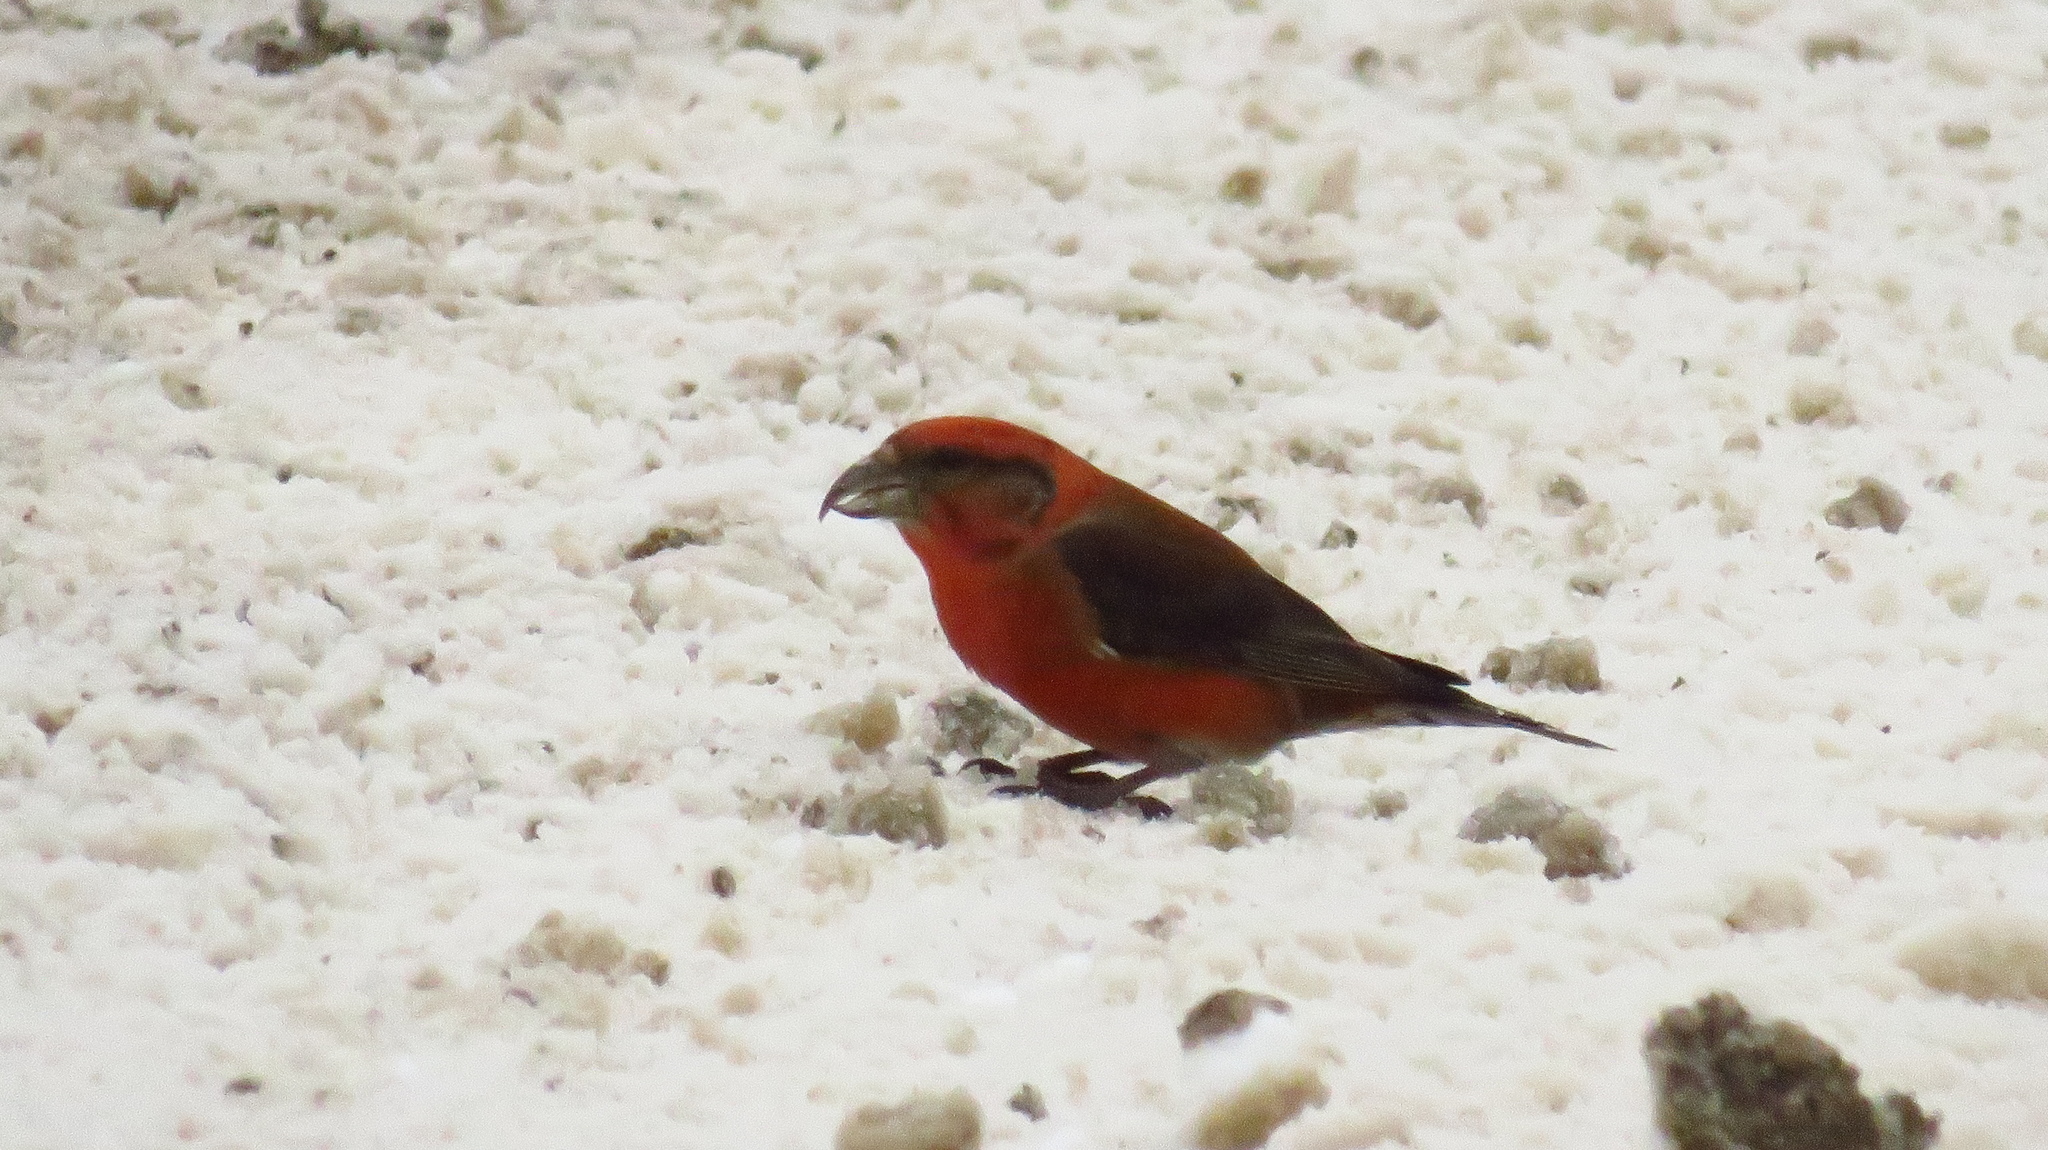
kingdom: Animalia
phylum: Chordata
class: Aves
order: Passeriformes
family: Fringillidae
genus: Loxia
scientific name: Loxia curvirostra
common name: Red crossbill
